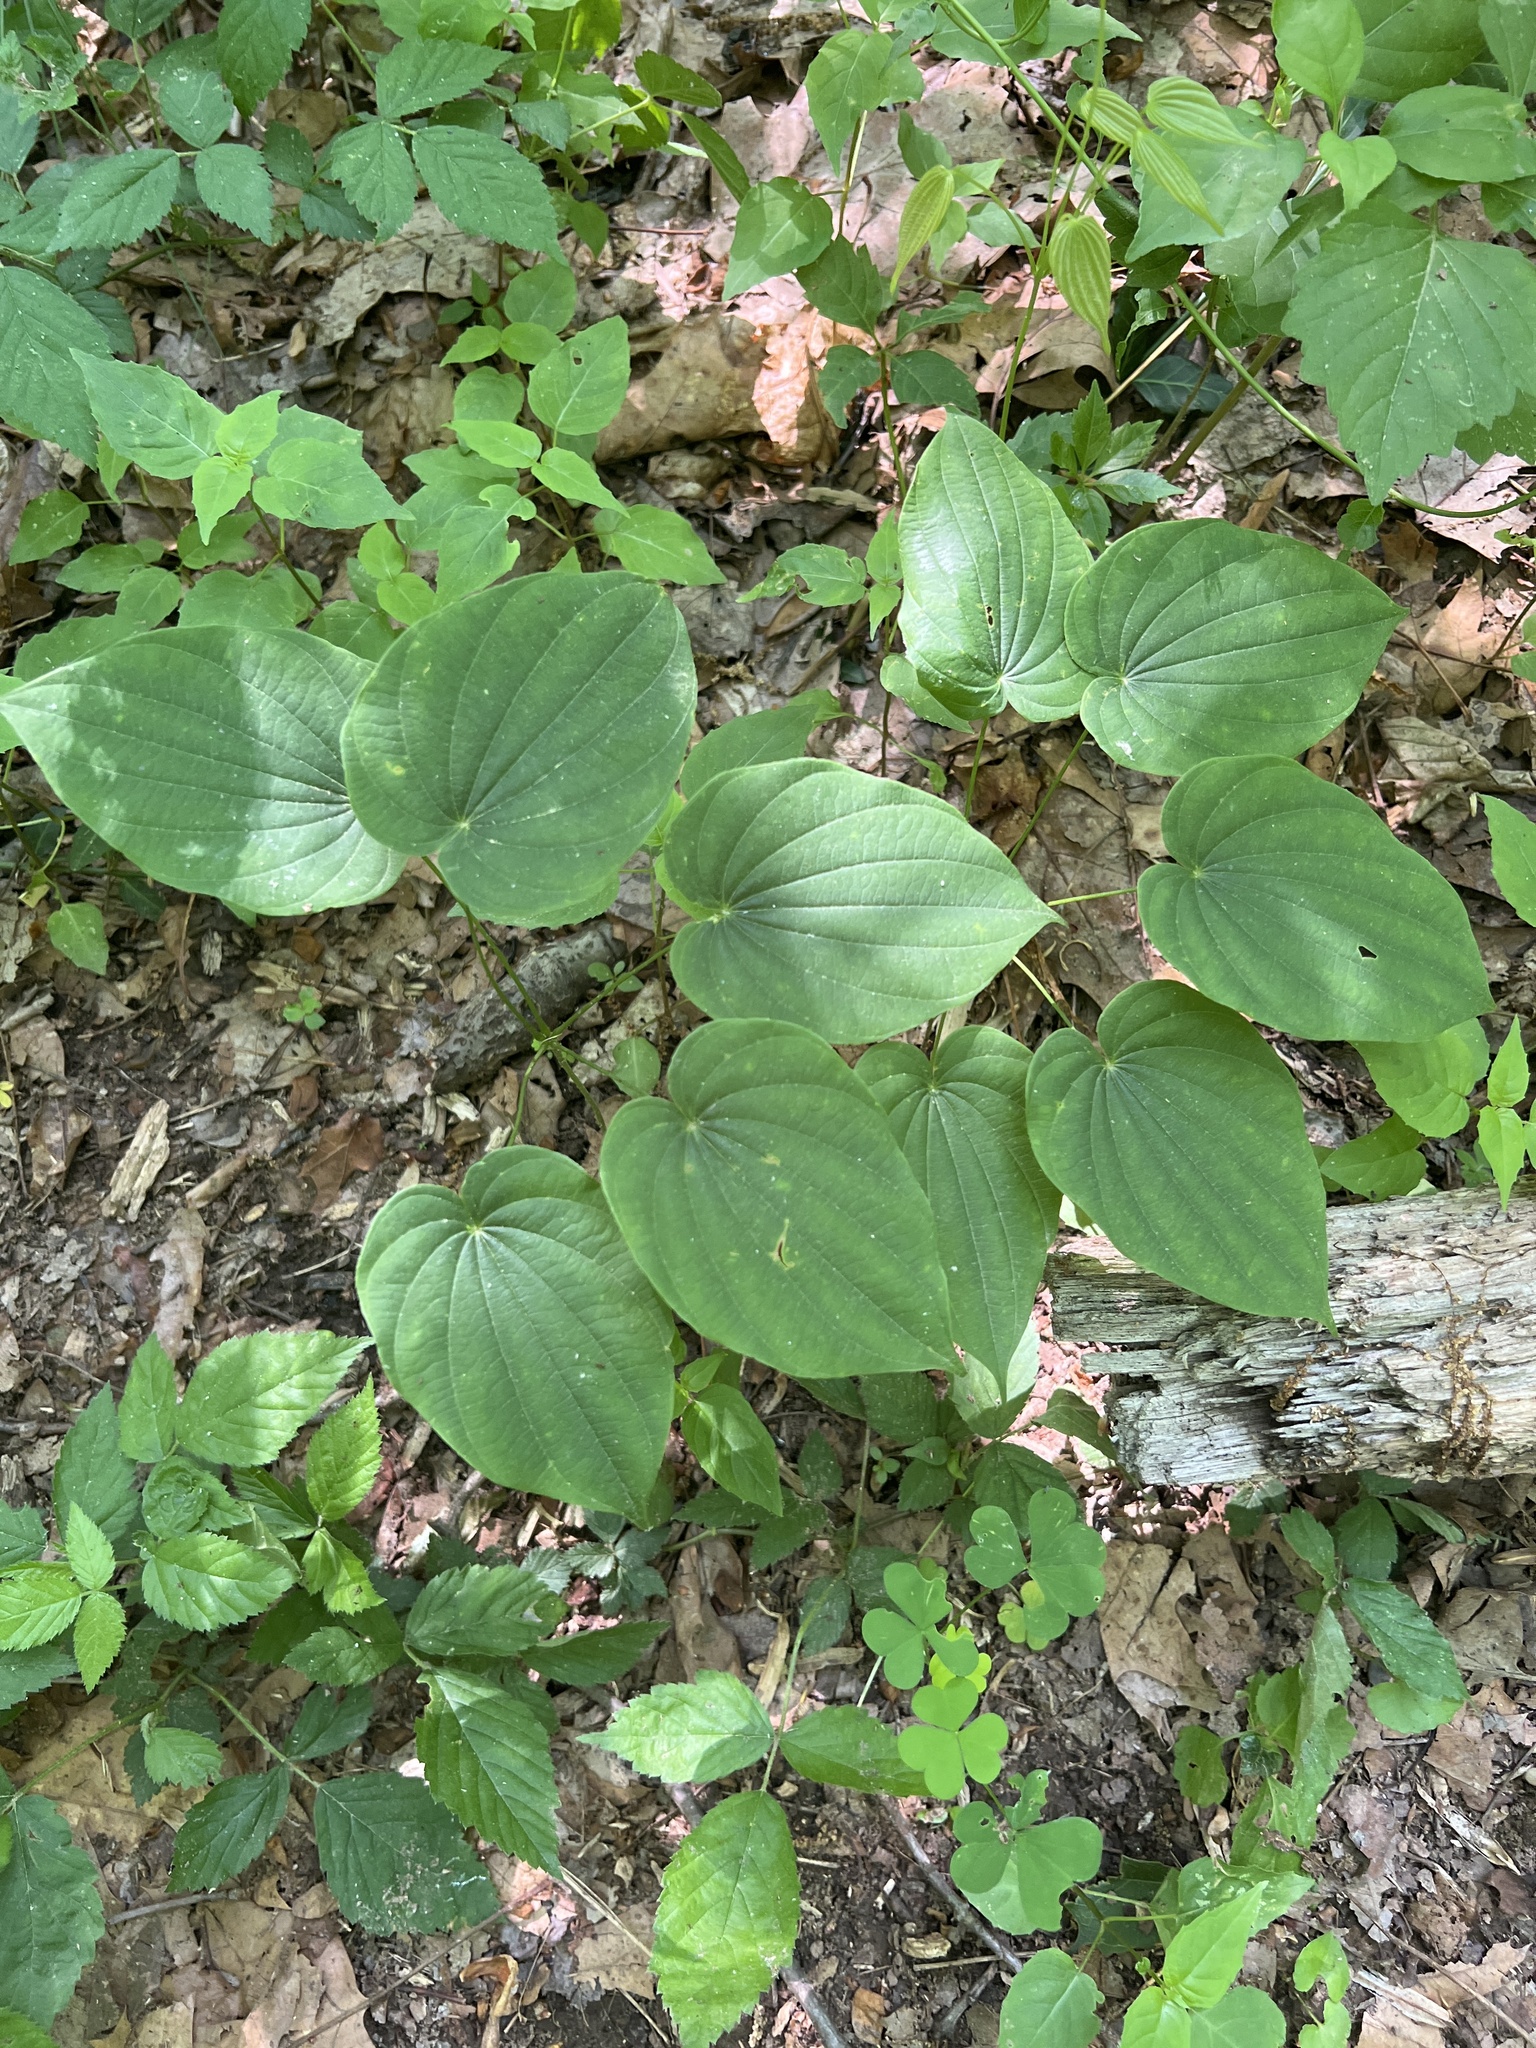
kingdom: Plantae
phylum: Tracheophyta
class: Liliopsida
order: Dioscoreales
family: Dioscoreaceae
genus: Dioscorea
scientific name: Dioscorea villosa
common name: Wild yam
